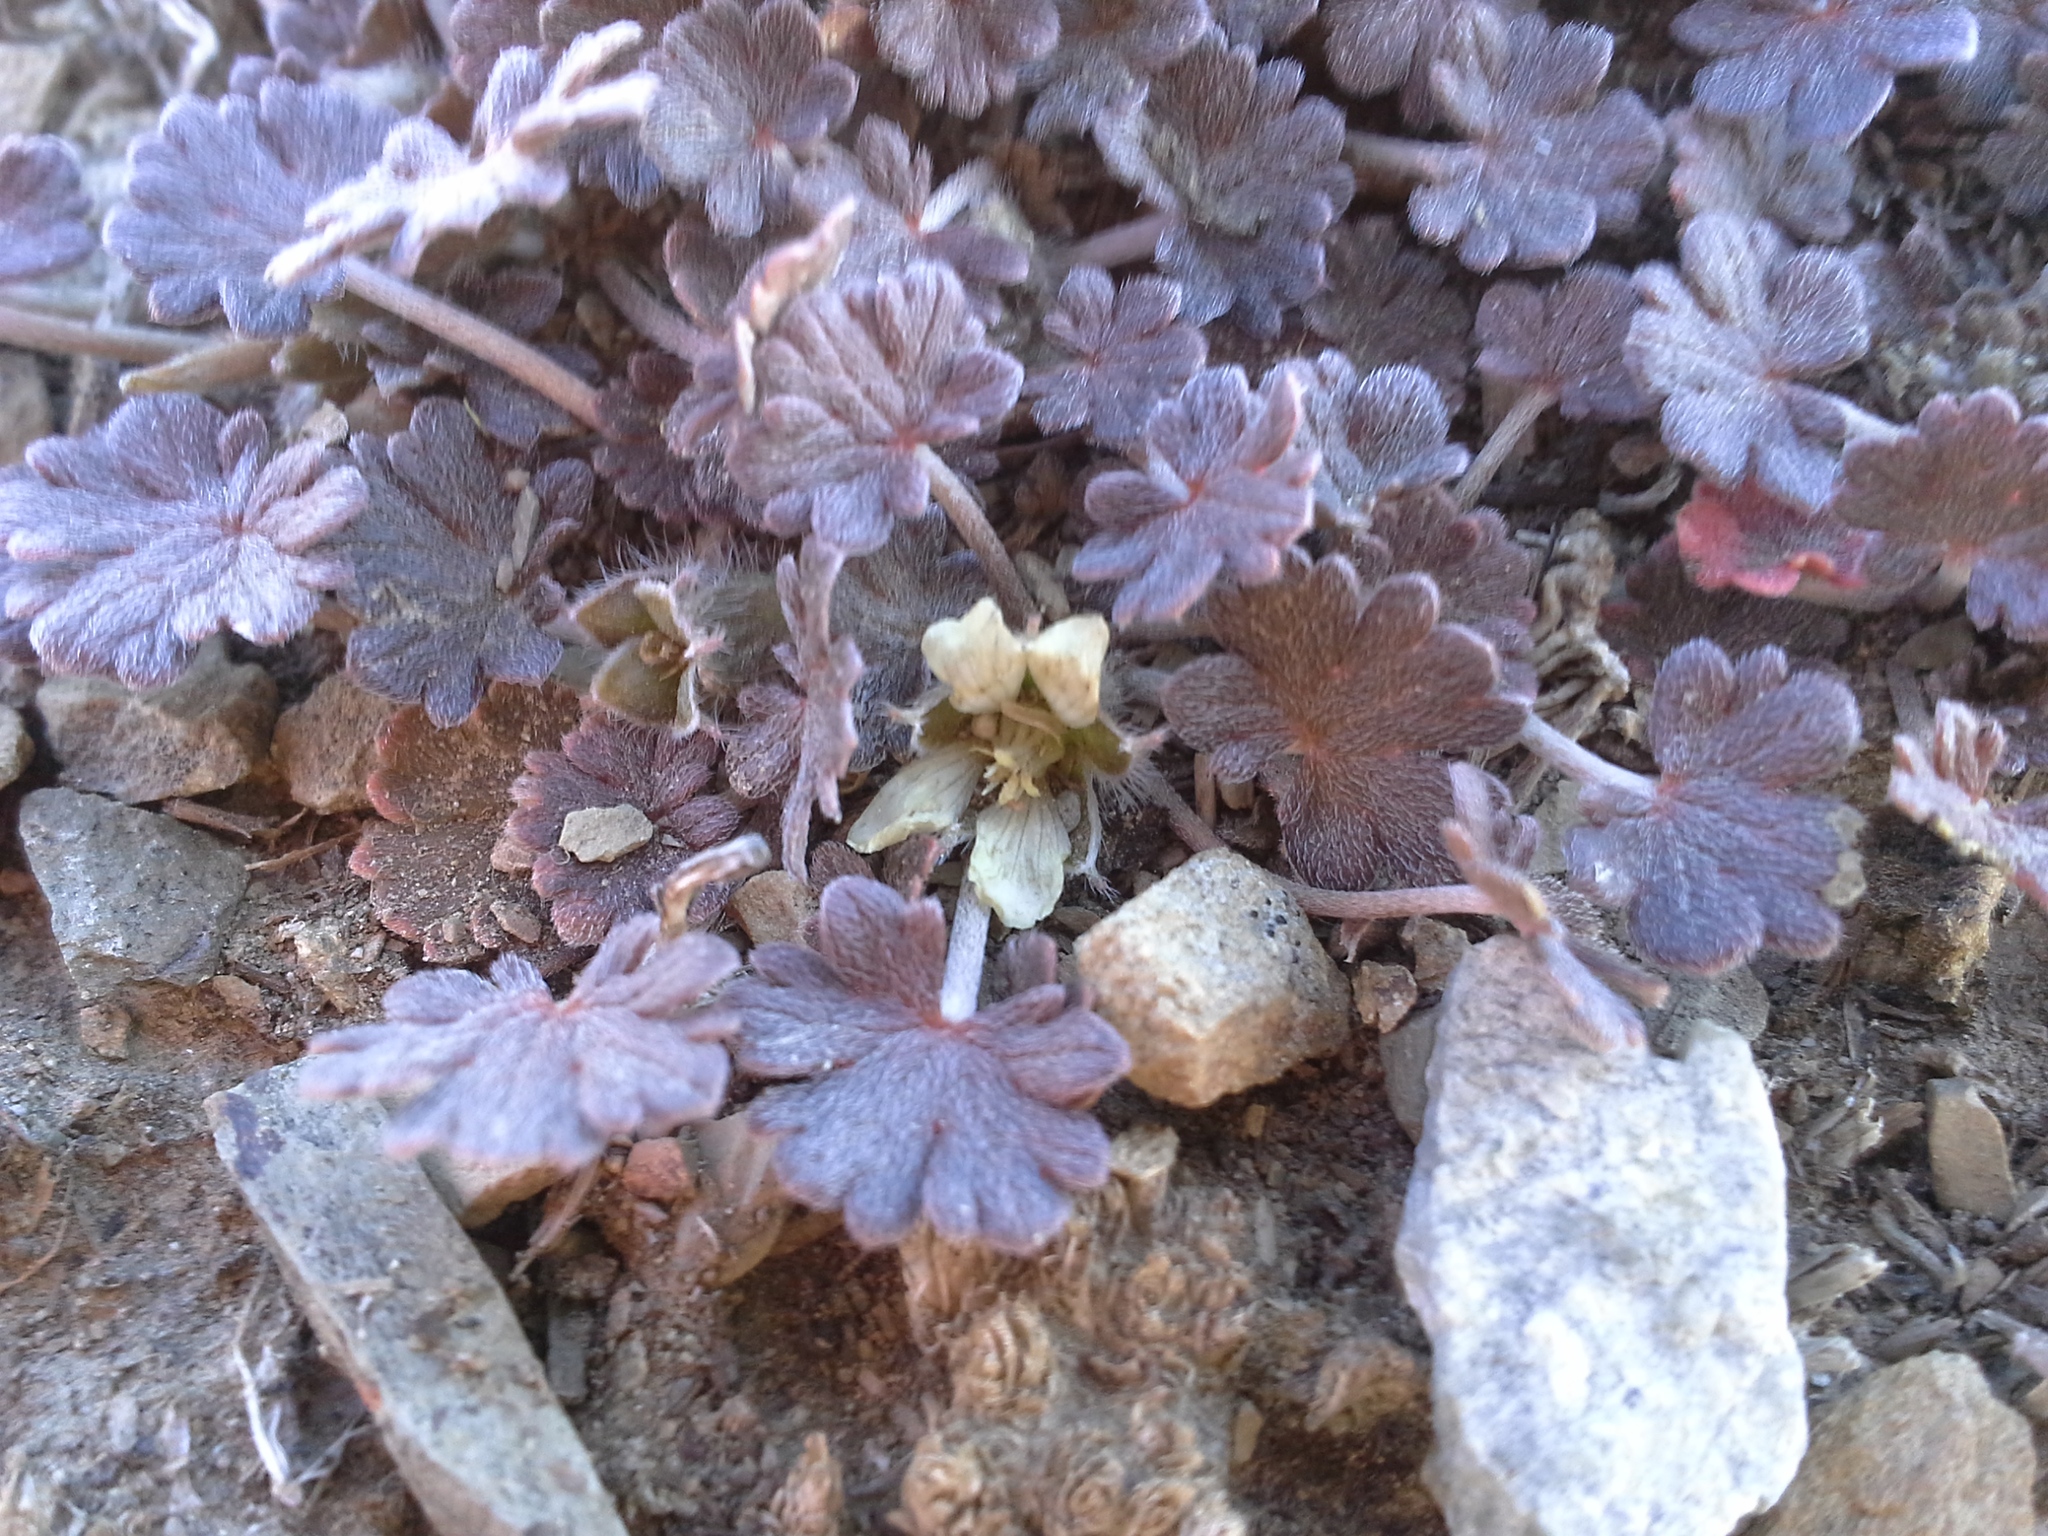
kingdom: Plantae
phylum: Tracheophyta
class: Magnoliopsida
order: Geraniales
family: Geraniaceae
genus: Geranium
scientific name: Geranium brevicaule
